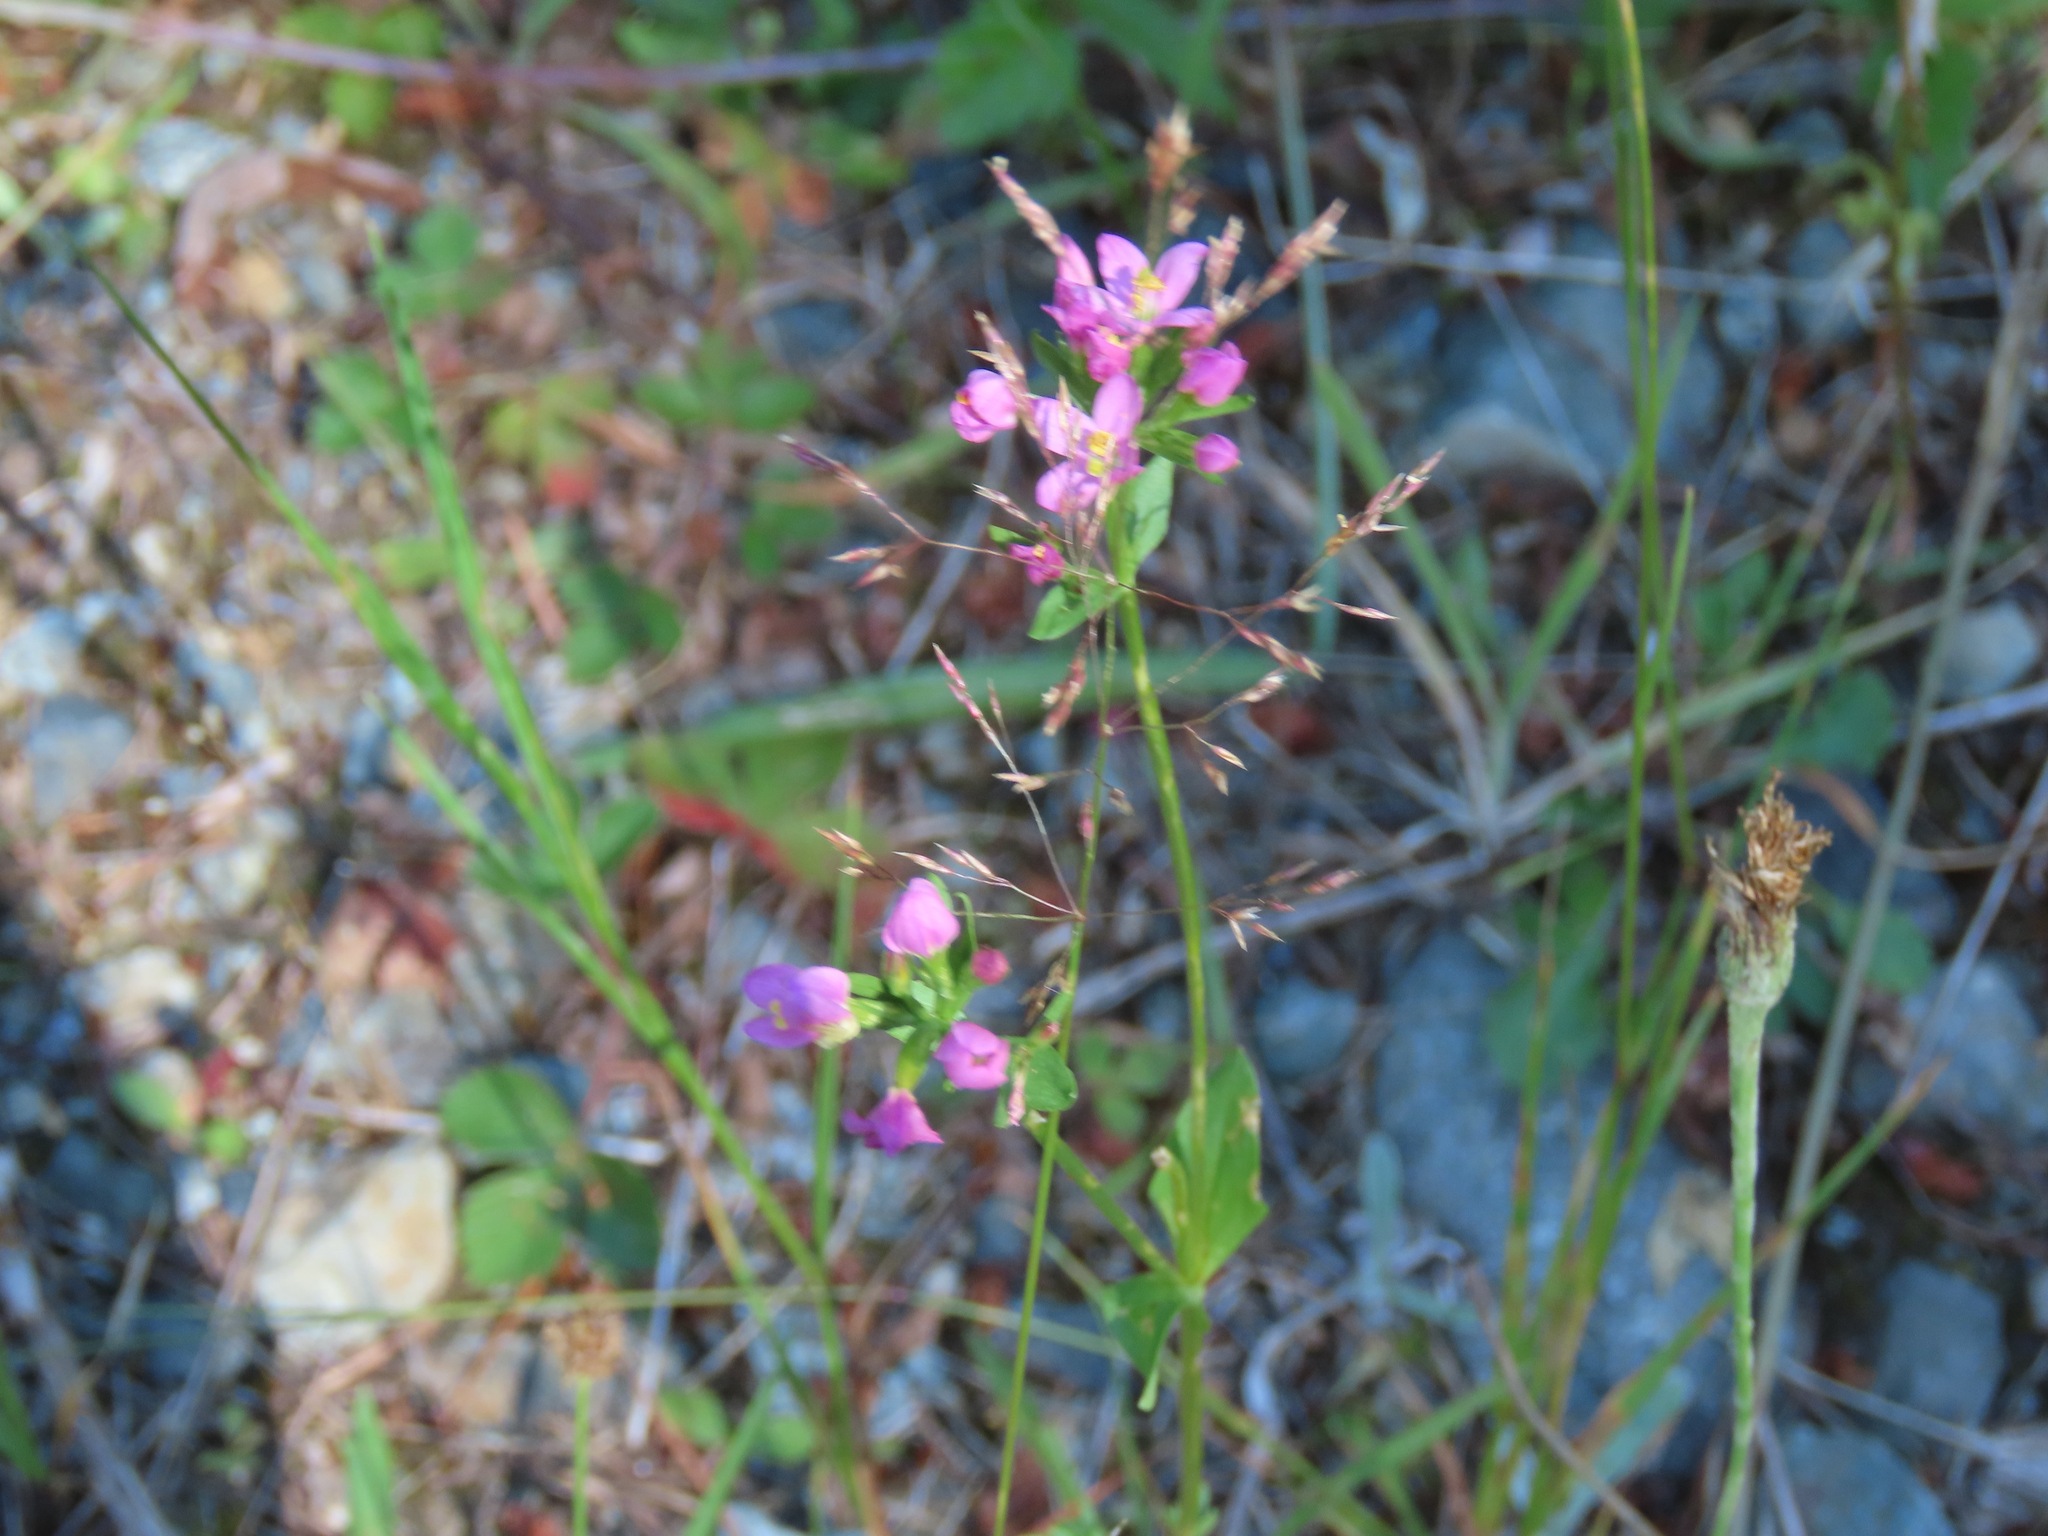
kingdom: Plantae
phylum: Tracheophyta
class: Magnoliopsida
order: Gentianales
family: Gentianaceae
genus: Centaurium
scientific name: Centaurium erythraea
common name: Common centaury
